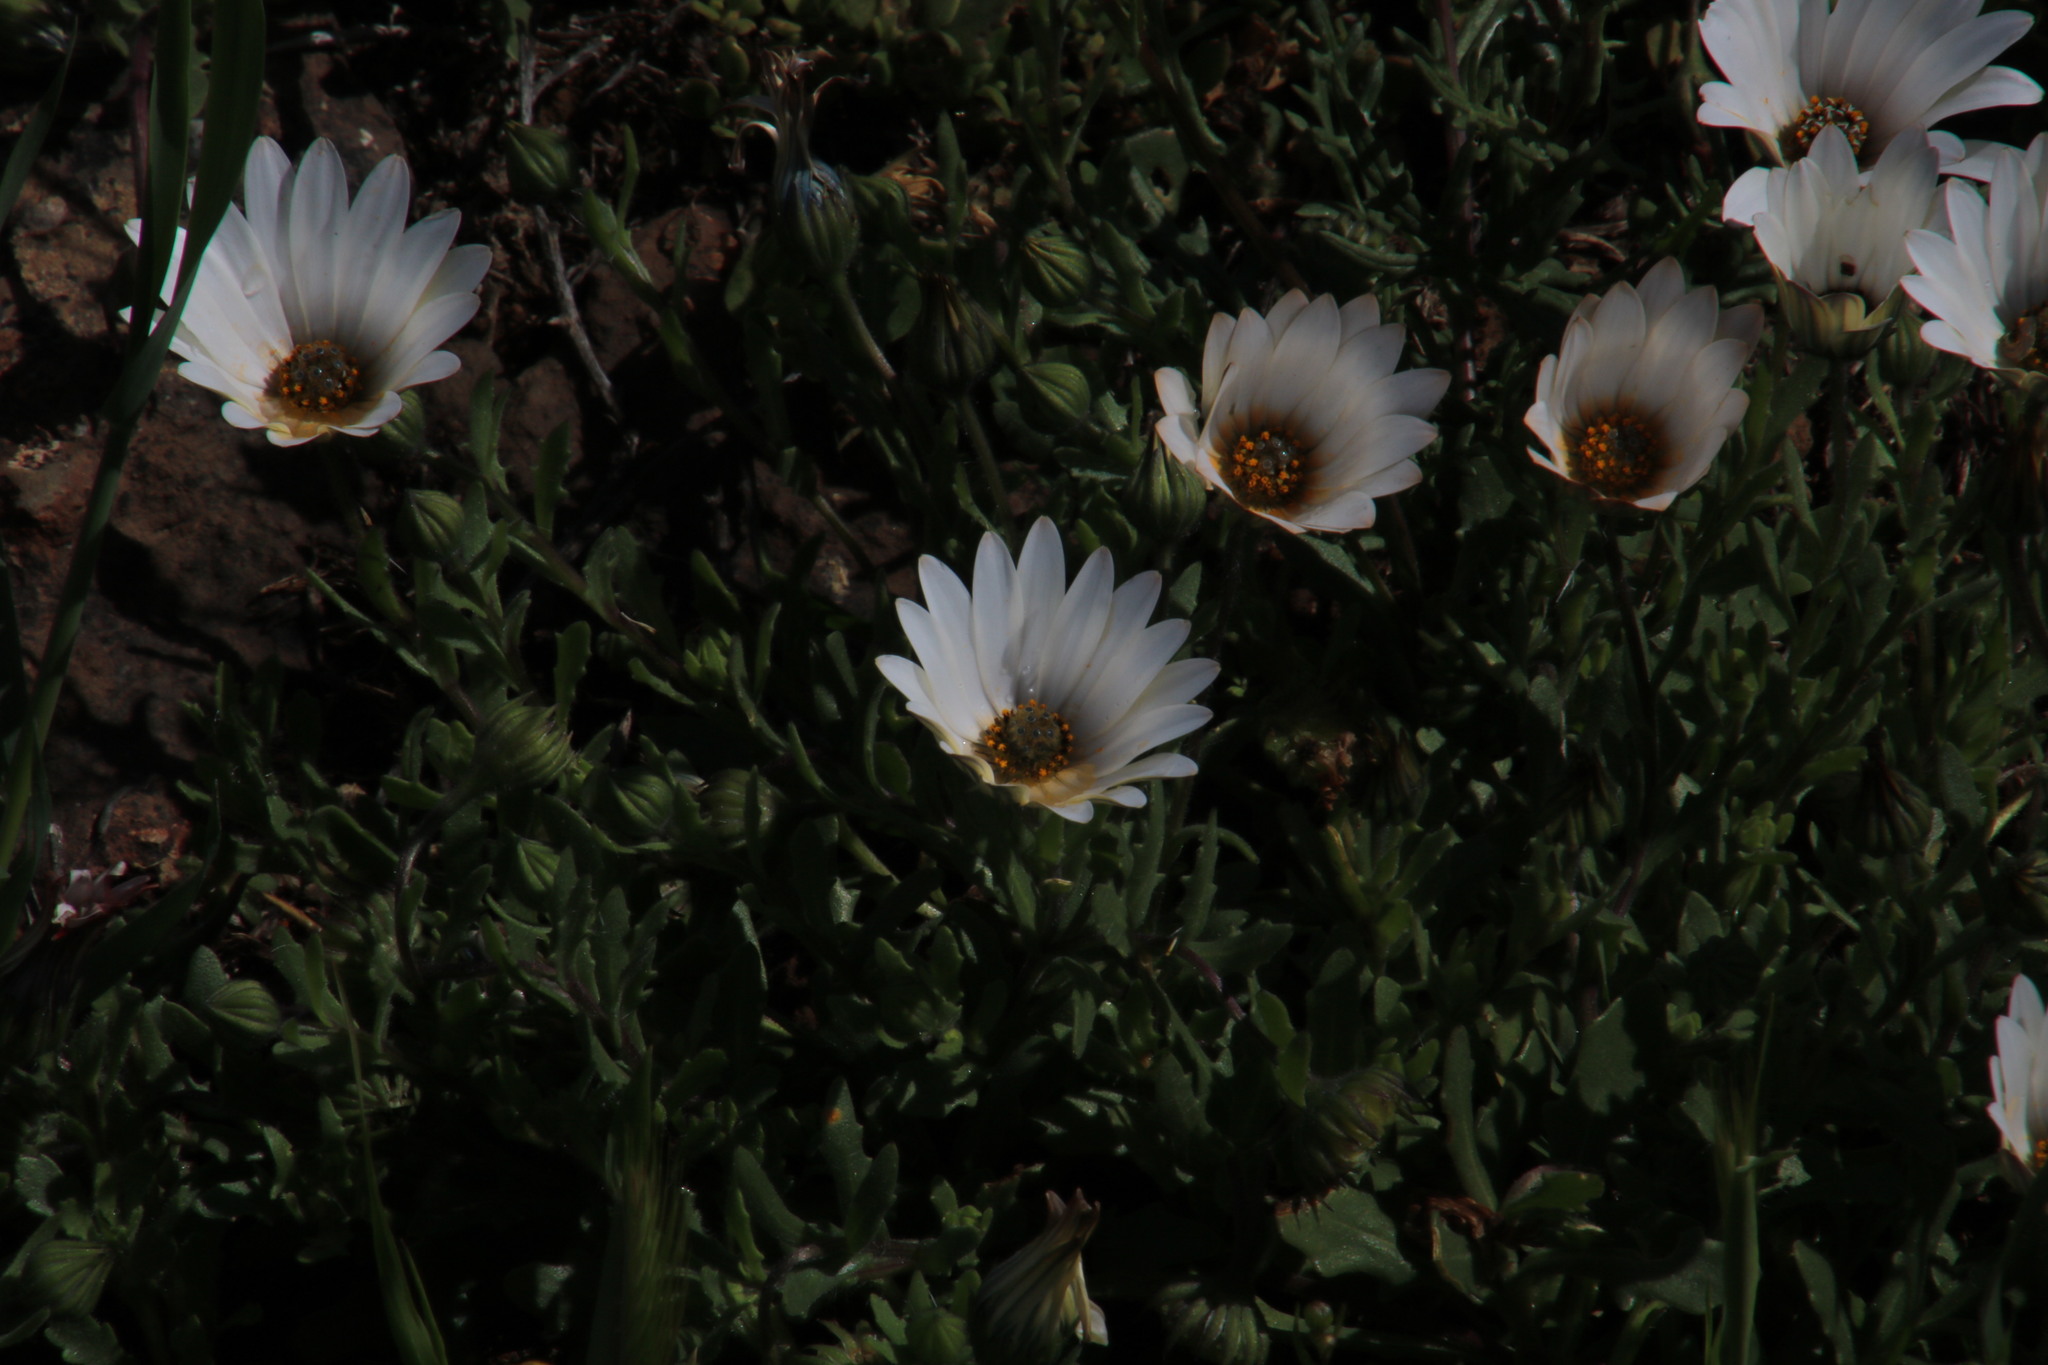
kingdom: Plantae
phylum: Tracheophyta
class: Magnoliopsida
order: Asterales
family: Asteraceae
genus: Dimorphotheca
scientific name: Dimorphotheca pluvialis
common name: Weather prophet
